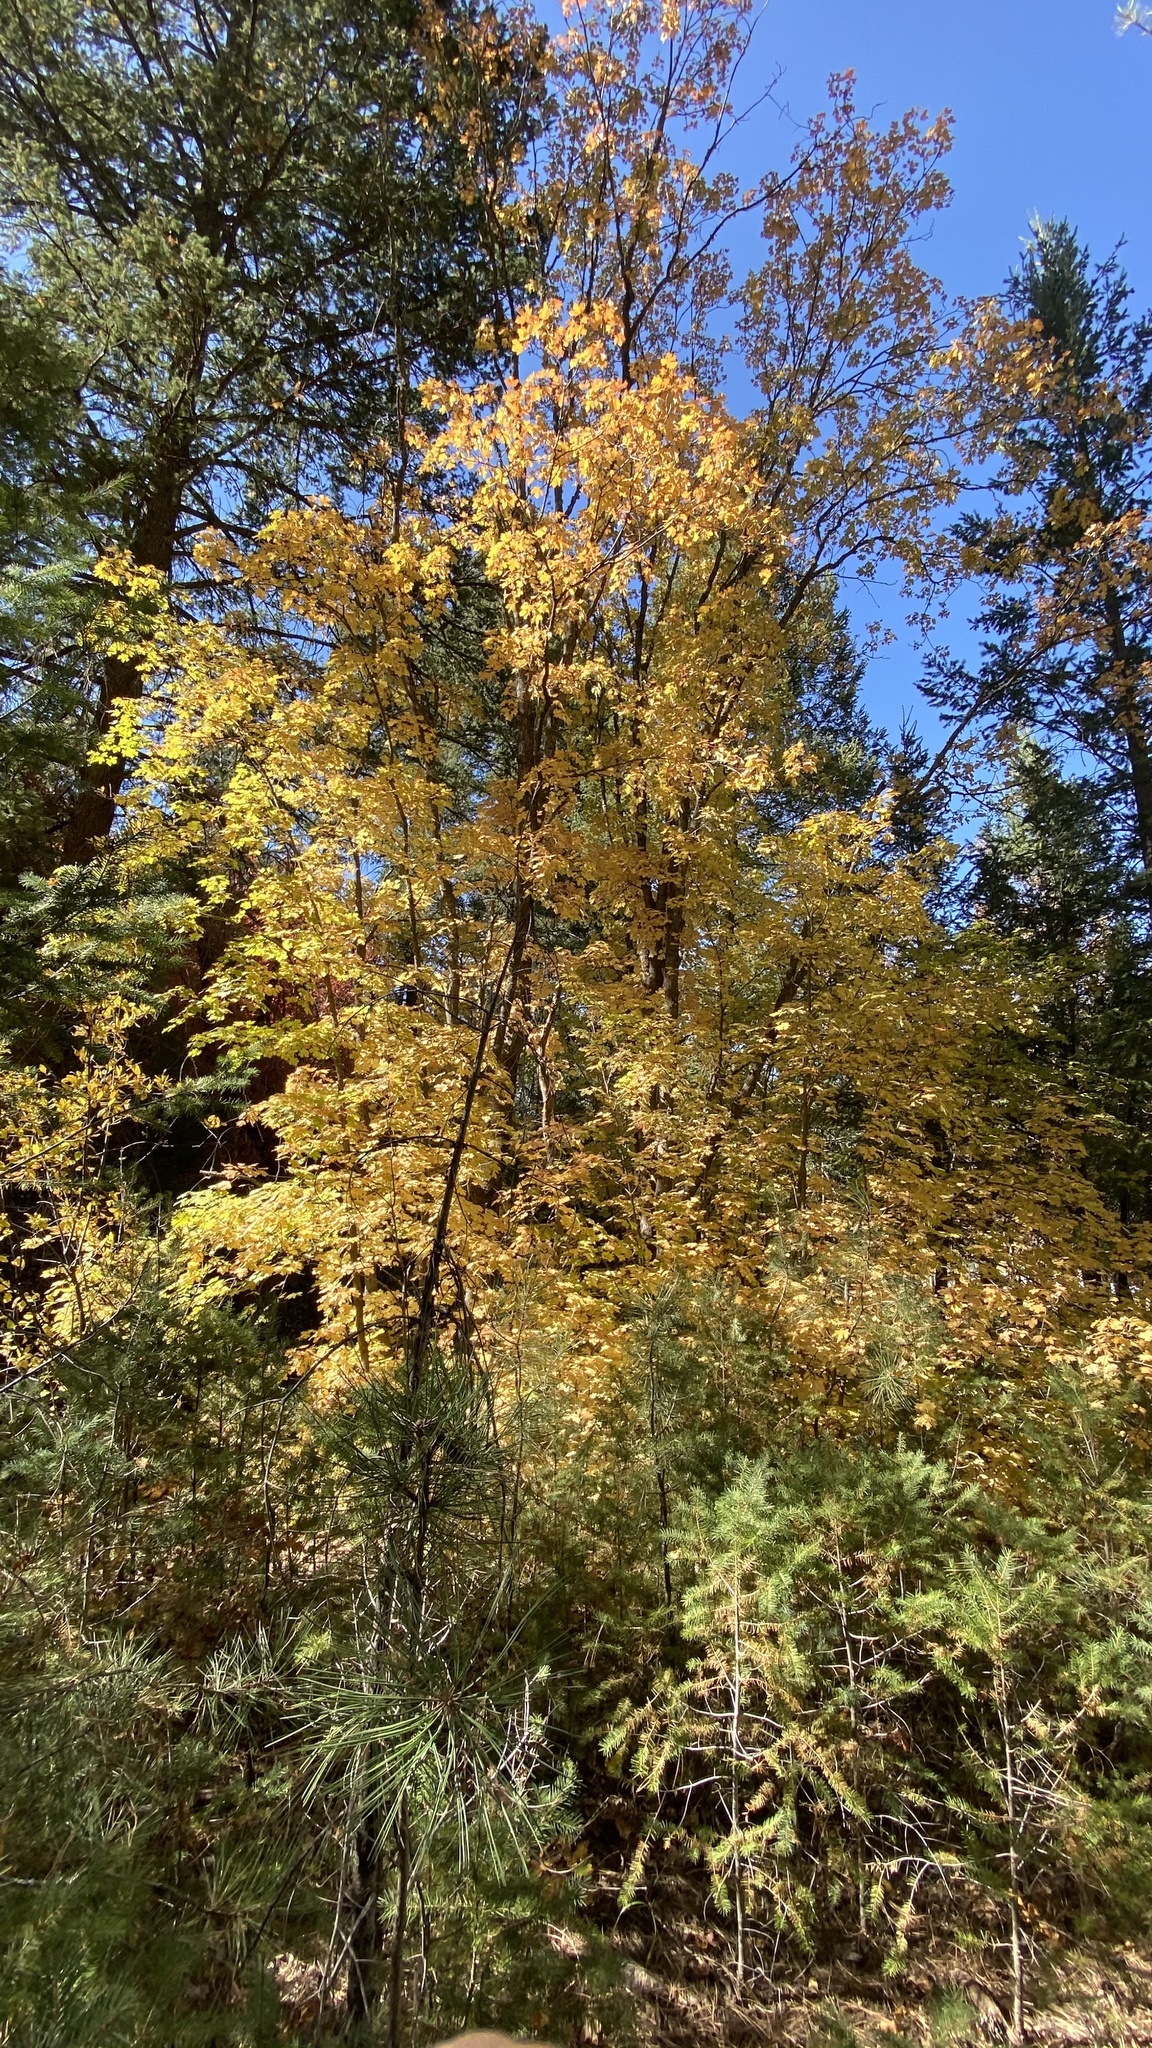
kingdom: Plantae
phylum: Tracheophyta
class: Magnoliopsida
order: Sapindales
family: Sapindaceae
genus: Acer
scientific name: Acer grandidentatum
